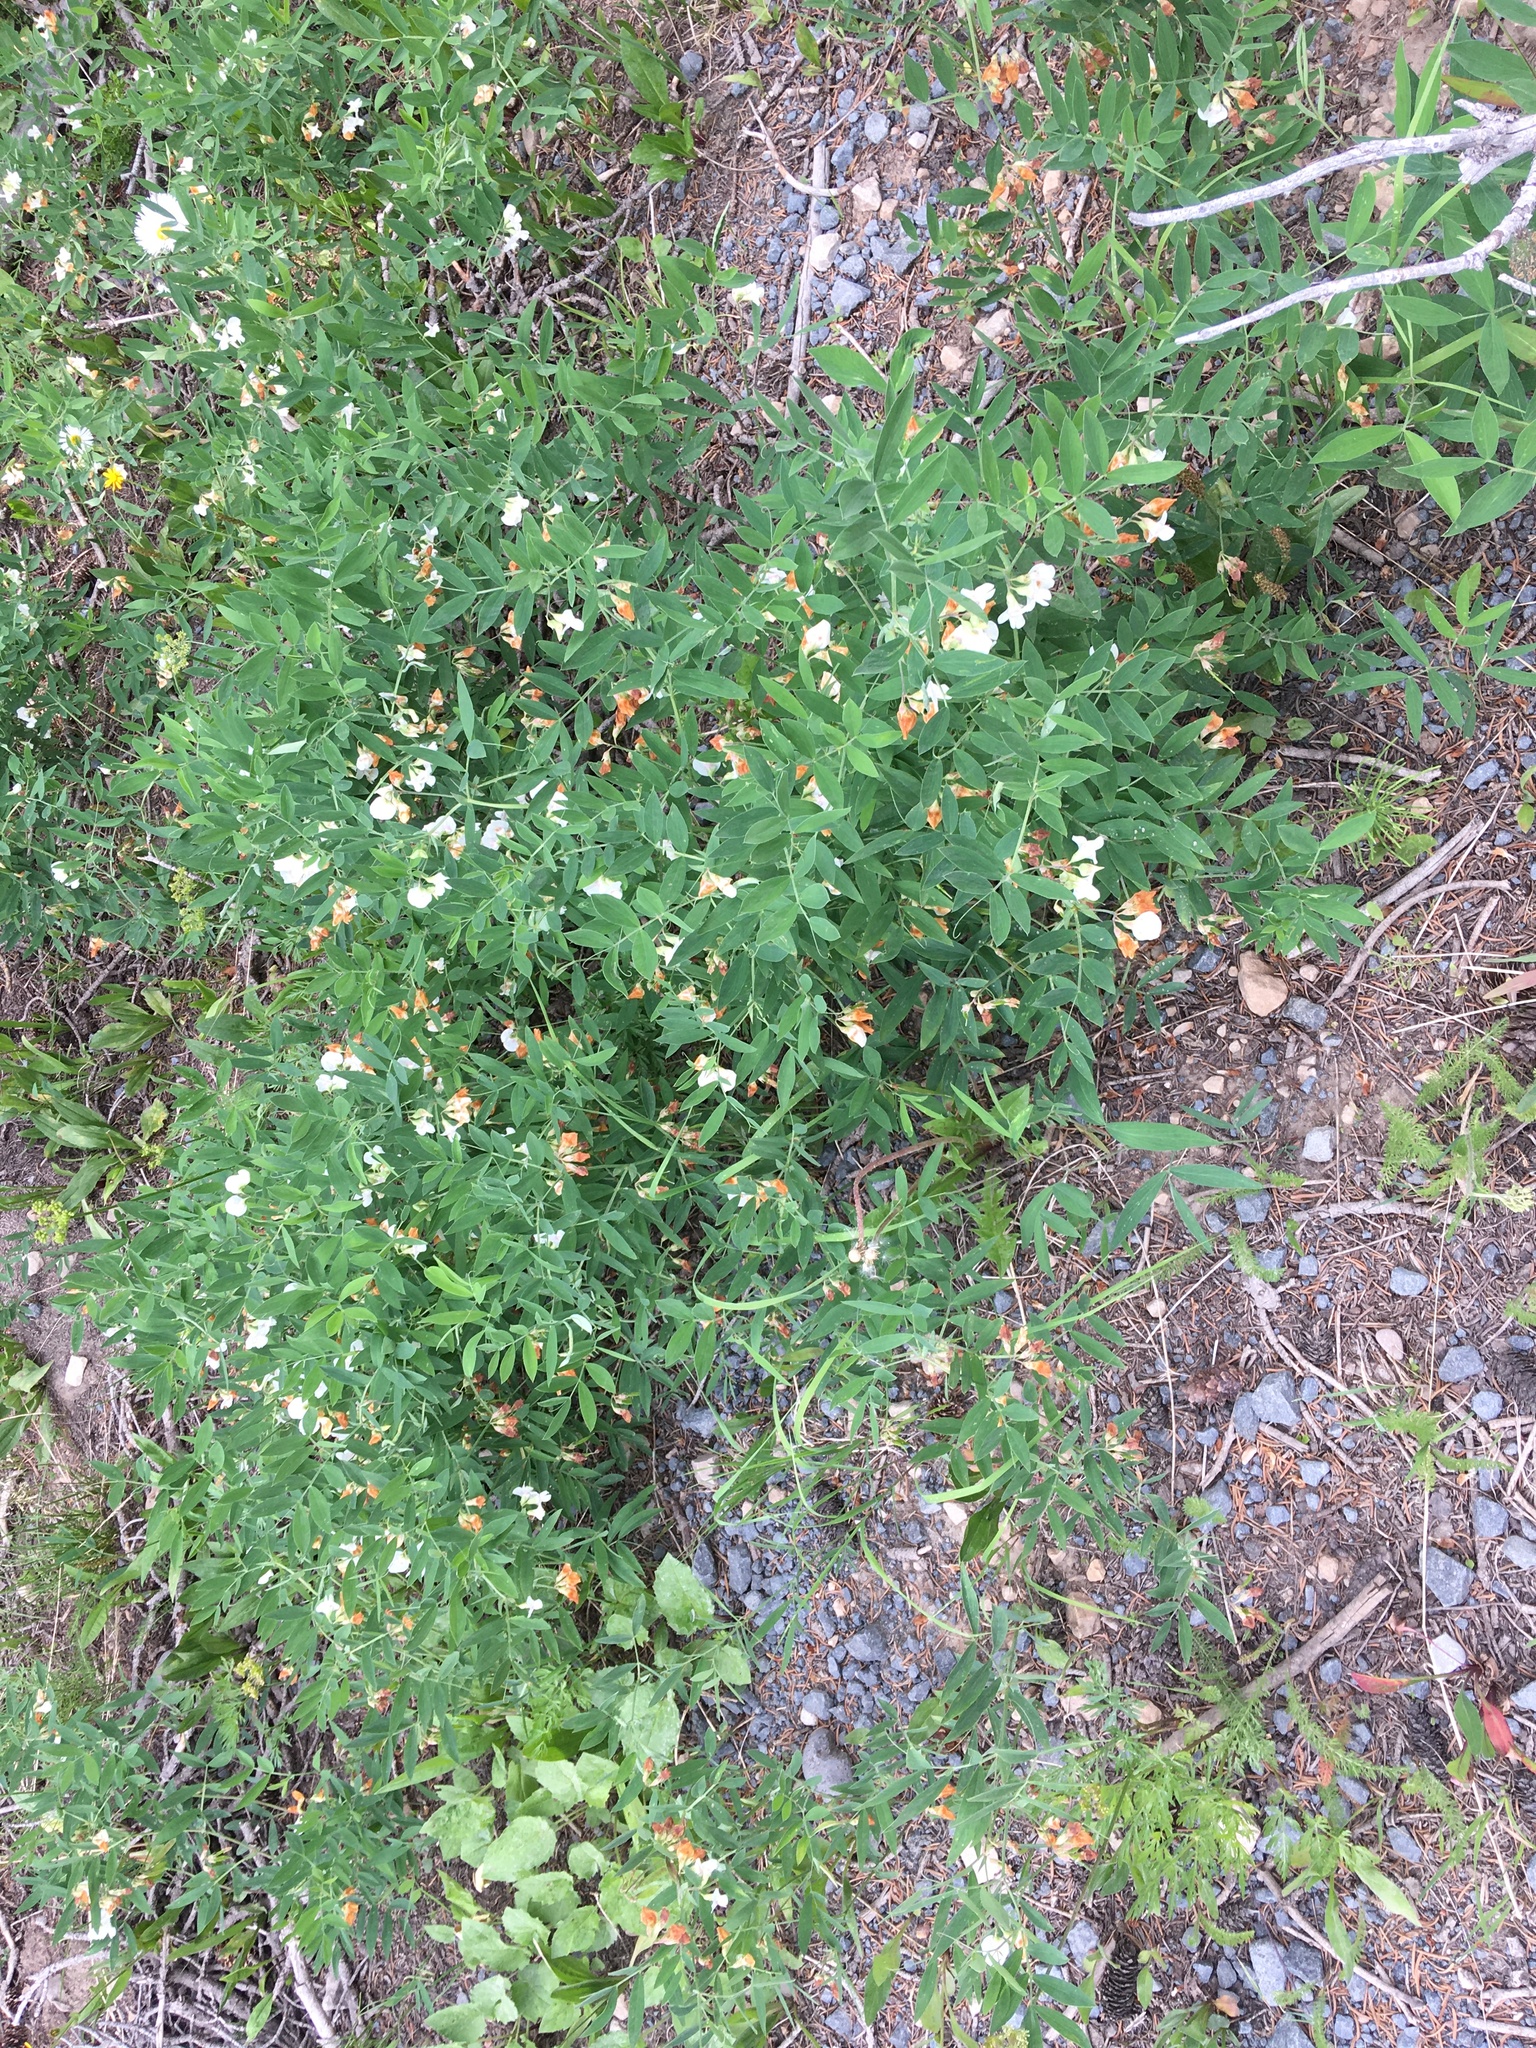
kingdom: Plantae
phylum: Tracheophyta
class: Magnoliopsida
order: Fabales
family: Fabaceae
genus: Lathyrus
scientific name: Lathyrus lanszwertii
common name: Lanszwert's vetchling
